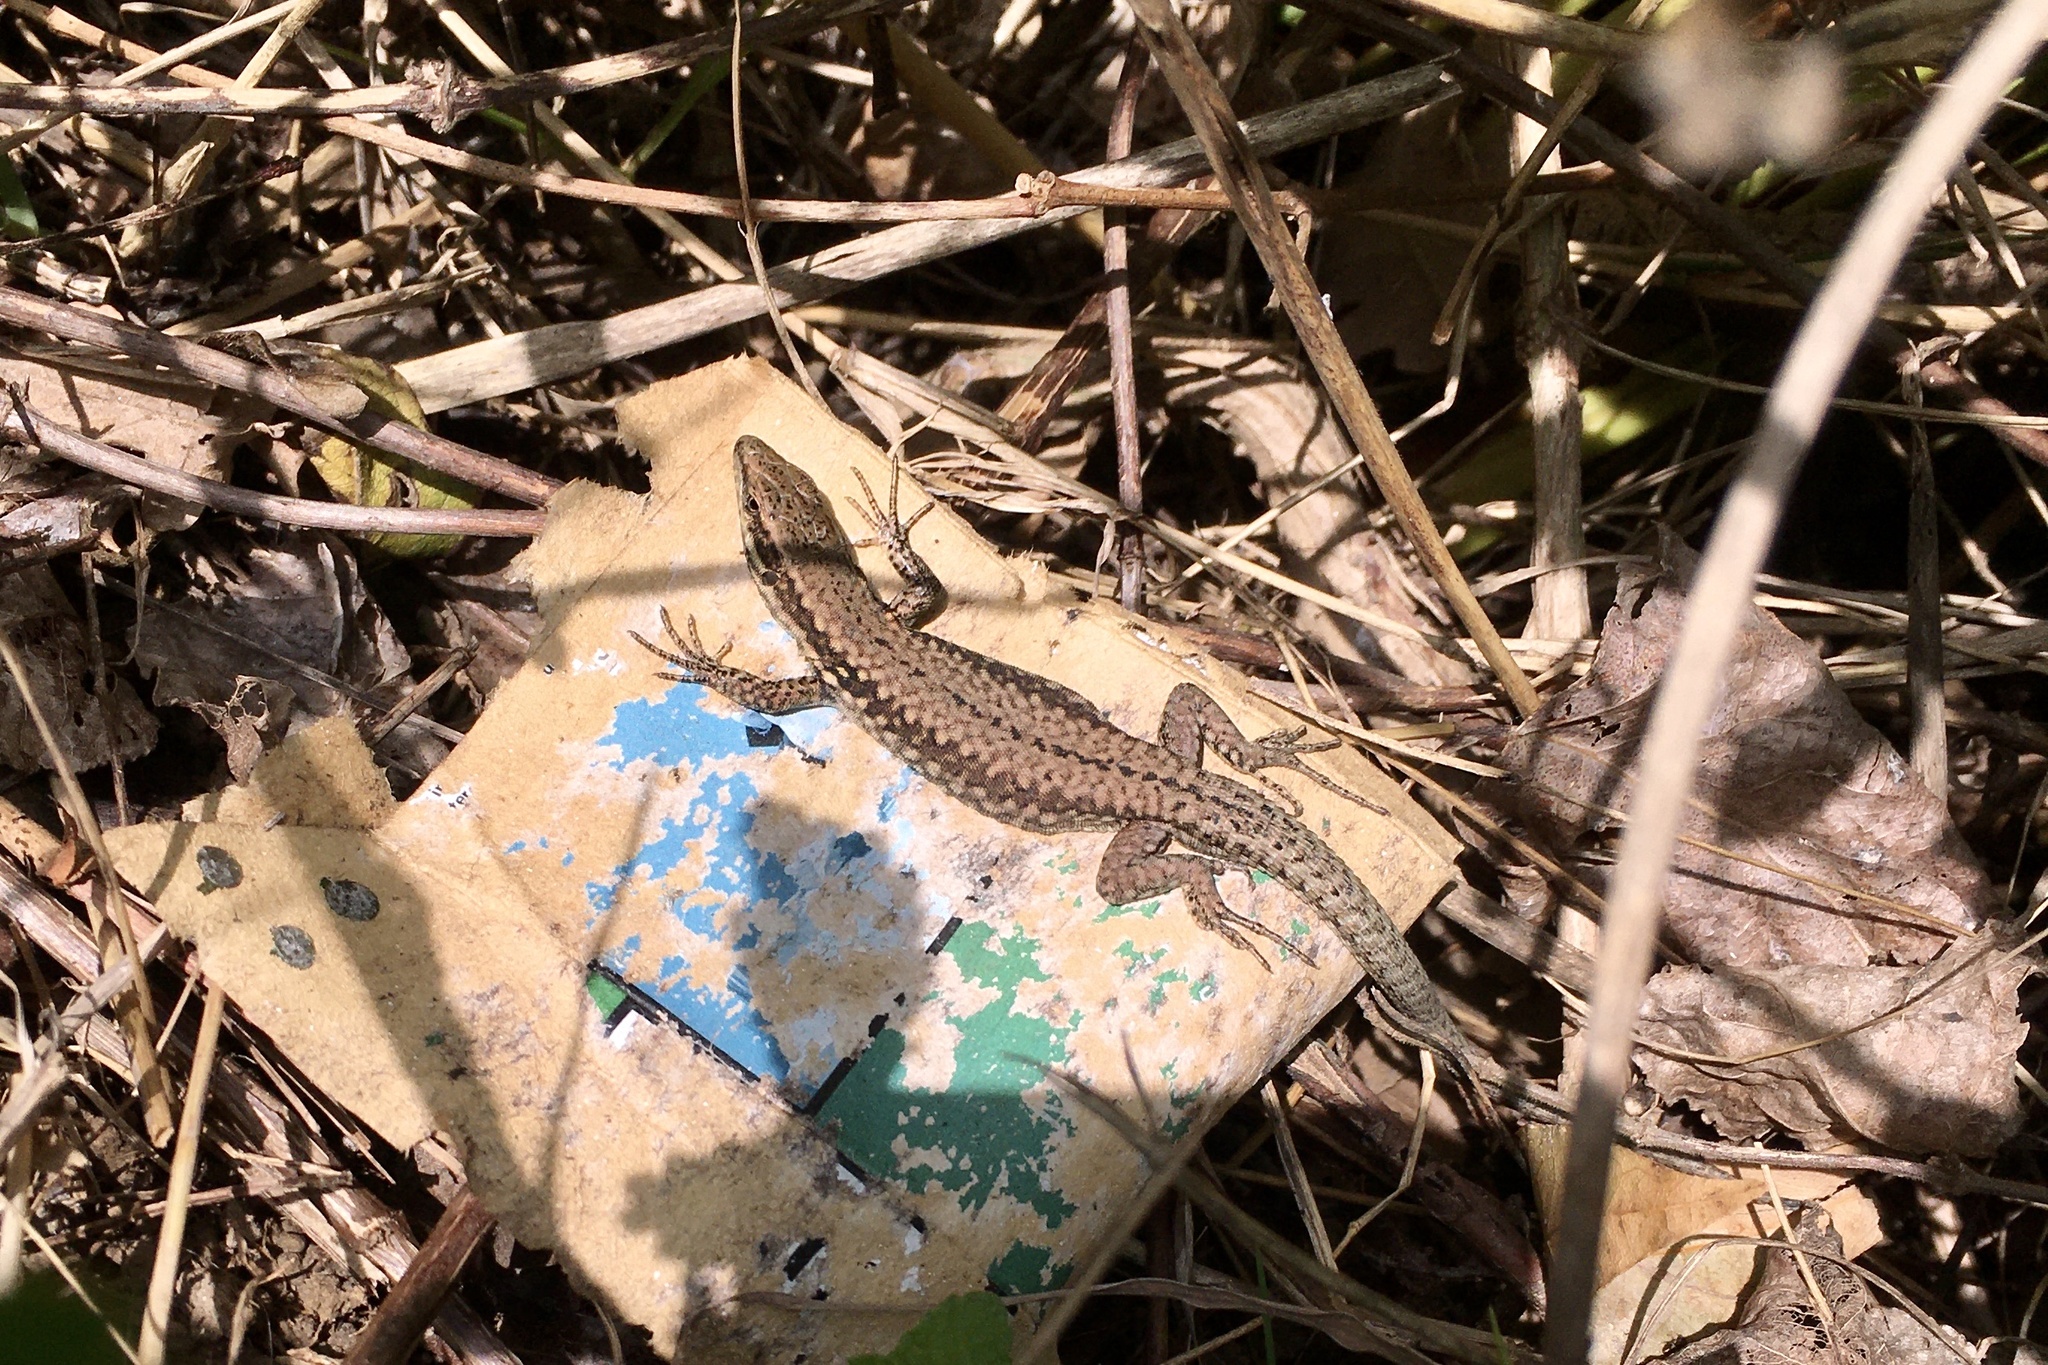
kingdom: Animalia
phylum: Chordata
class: Squamata
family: Lacertidae
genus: Podarcis
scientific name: Podarcis muralis
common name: Common wall lizard
